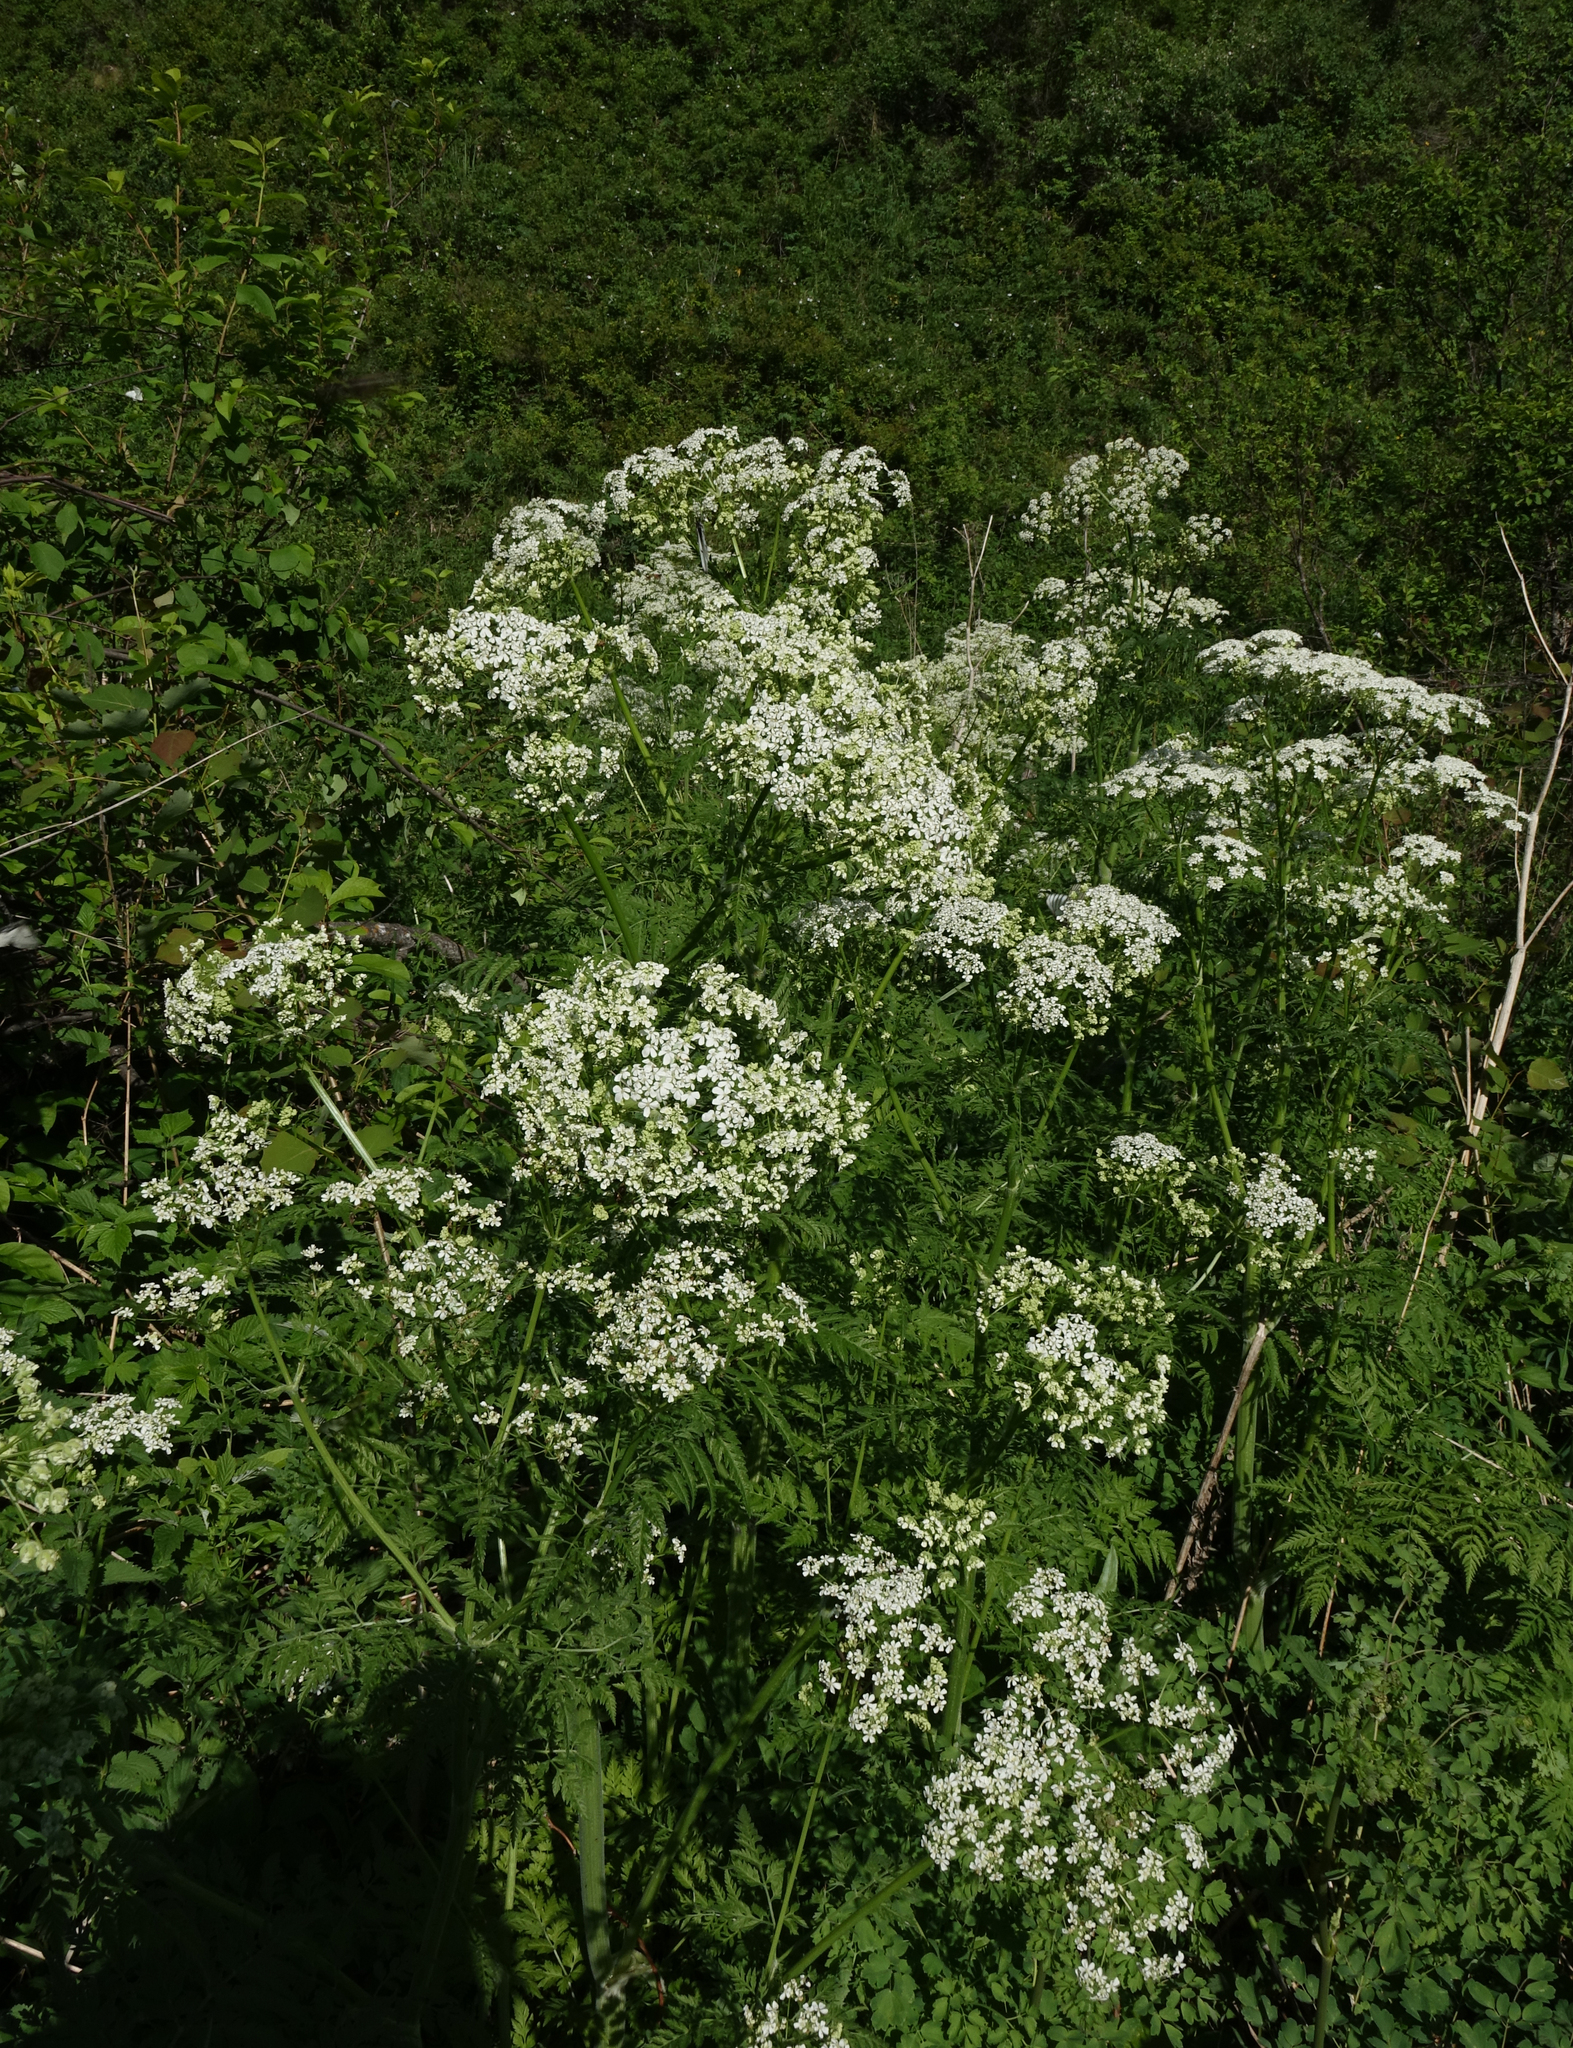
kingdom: Plantae
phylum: Tracheophyta
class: Magnoliopsida
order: Apiales
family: Apiaceae
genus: Anthriscus
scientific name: Anthriscus sylvestris
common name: Cow parsley
